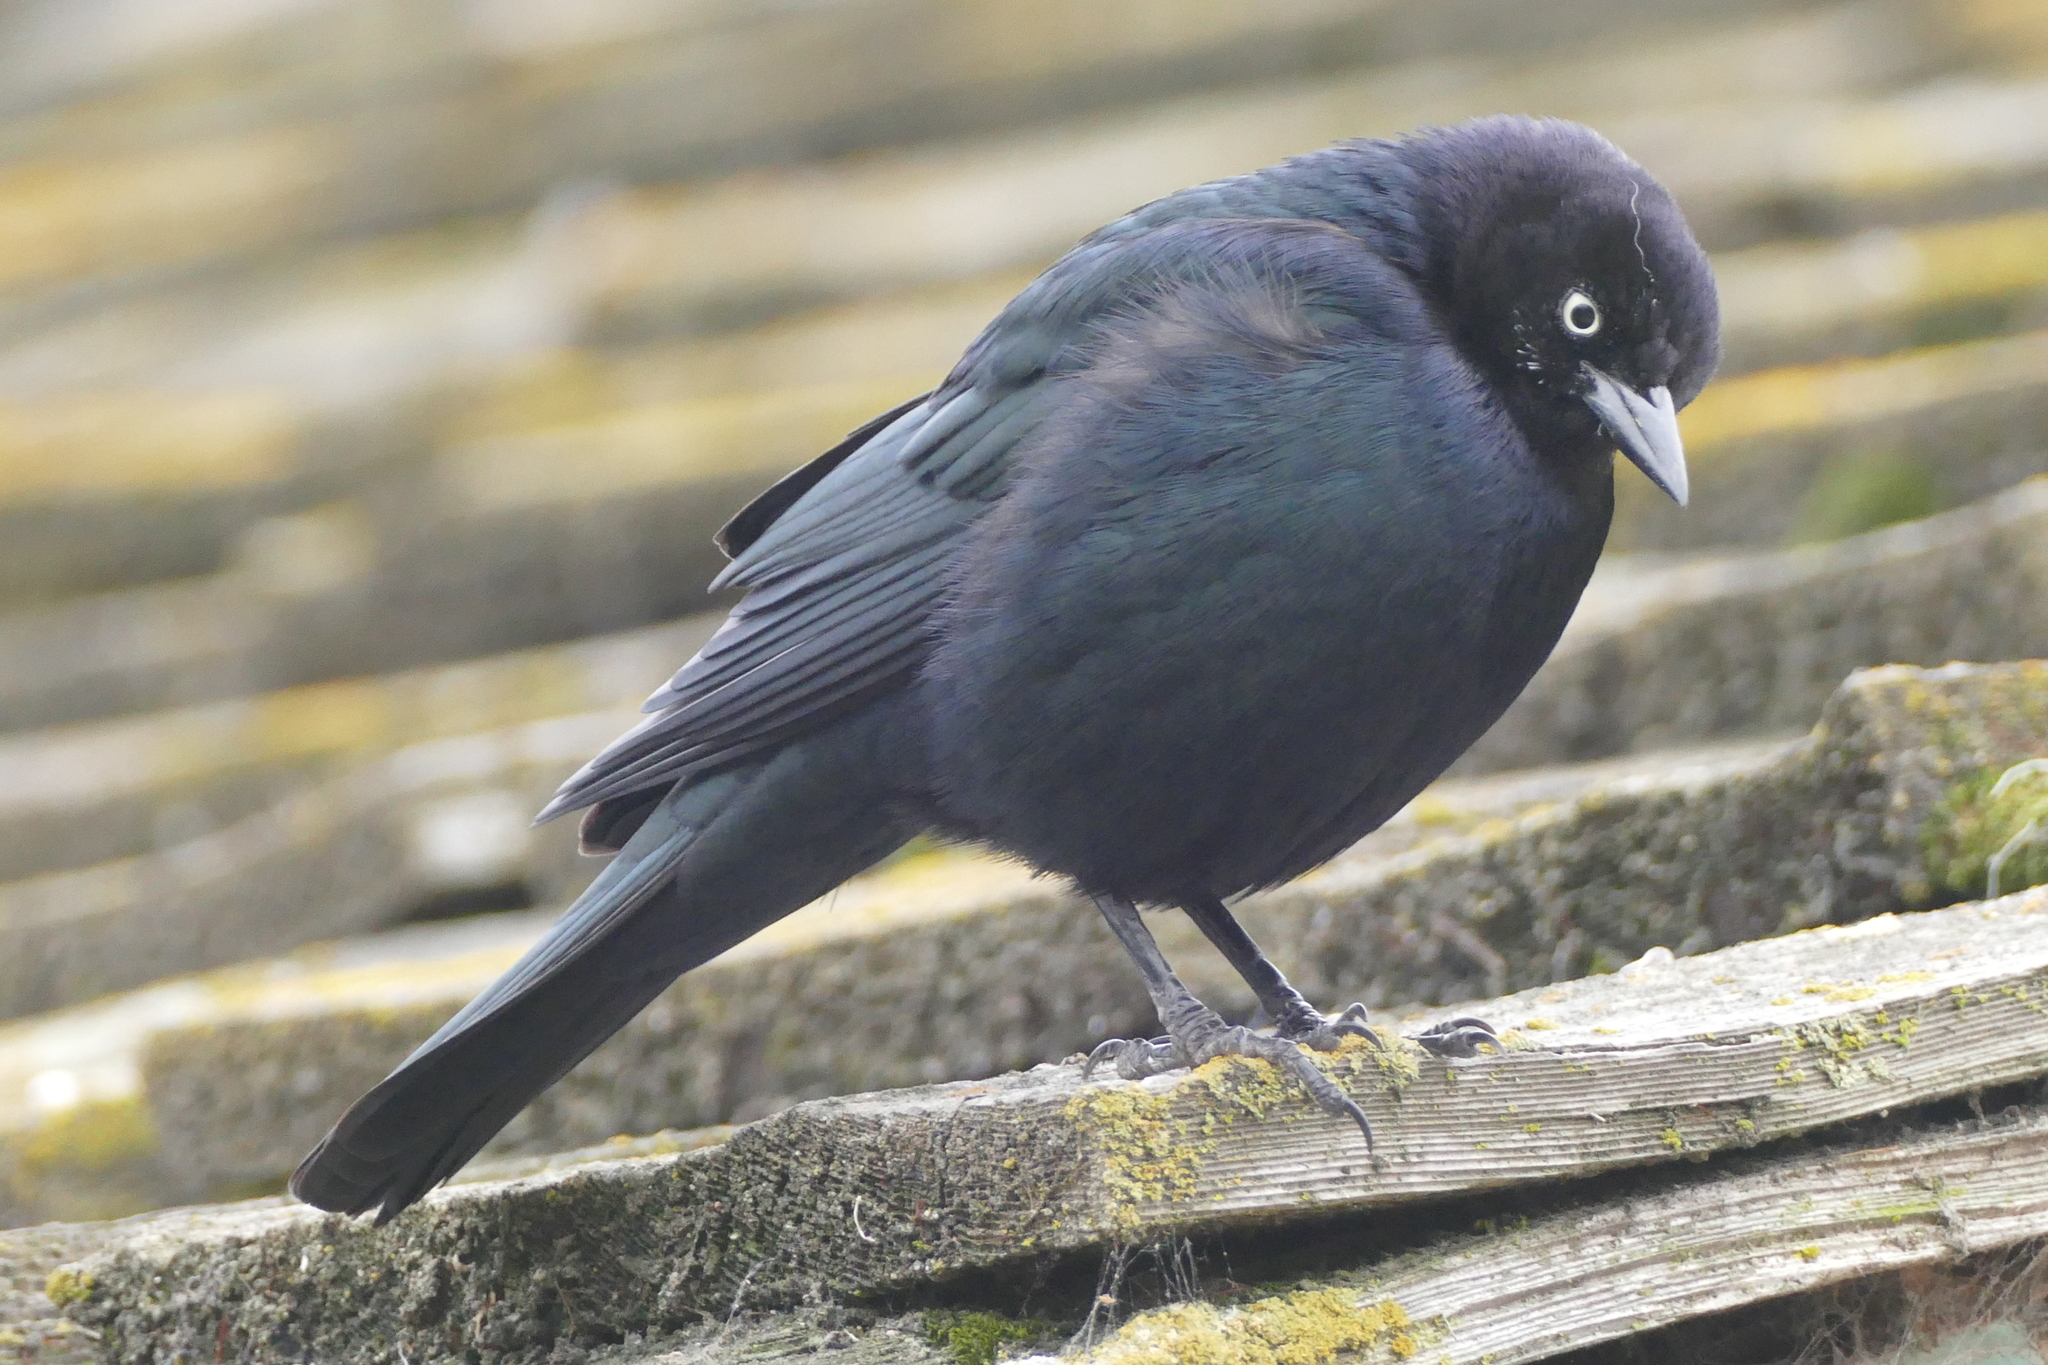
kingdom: Animalia
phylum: Chordata
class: Aves
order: Passeriformes
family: Icteridae
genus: Euphagus
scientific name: Euphagus cyanocephalus
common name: Brewer's blackbird
